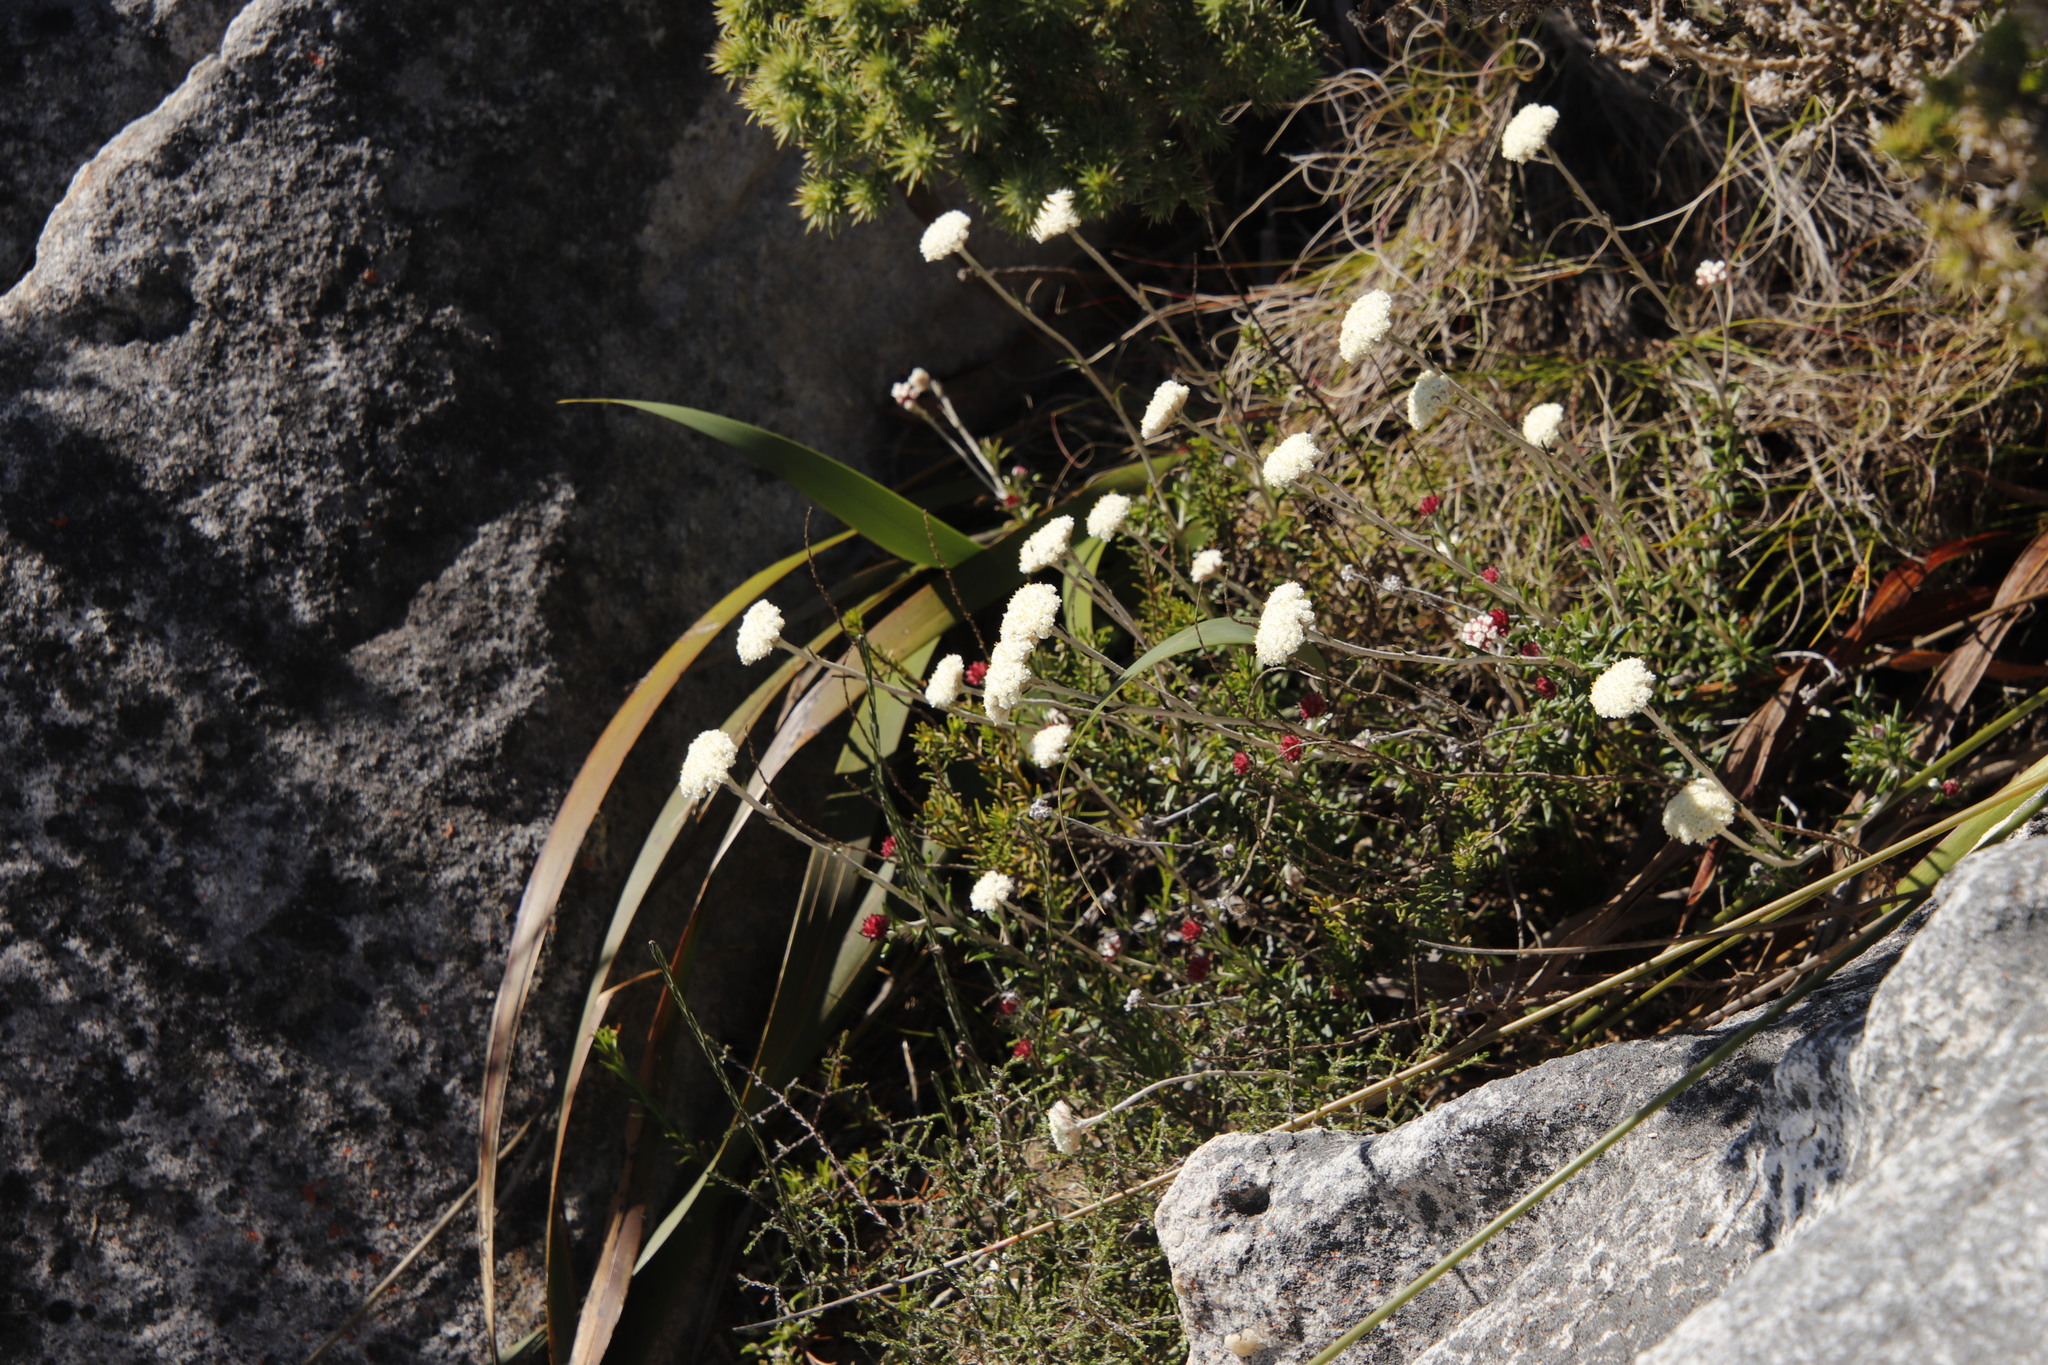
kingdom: Plantae
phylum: Tracheophyta
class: Magnoliopsida
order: Asterales
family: Asteraceae
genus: Anaxeton
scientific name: Anaxeton laeve
